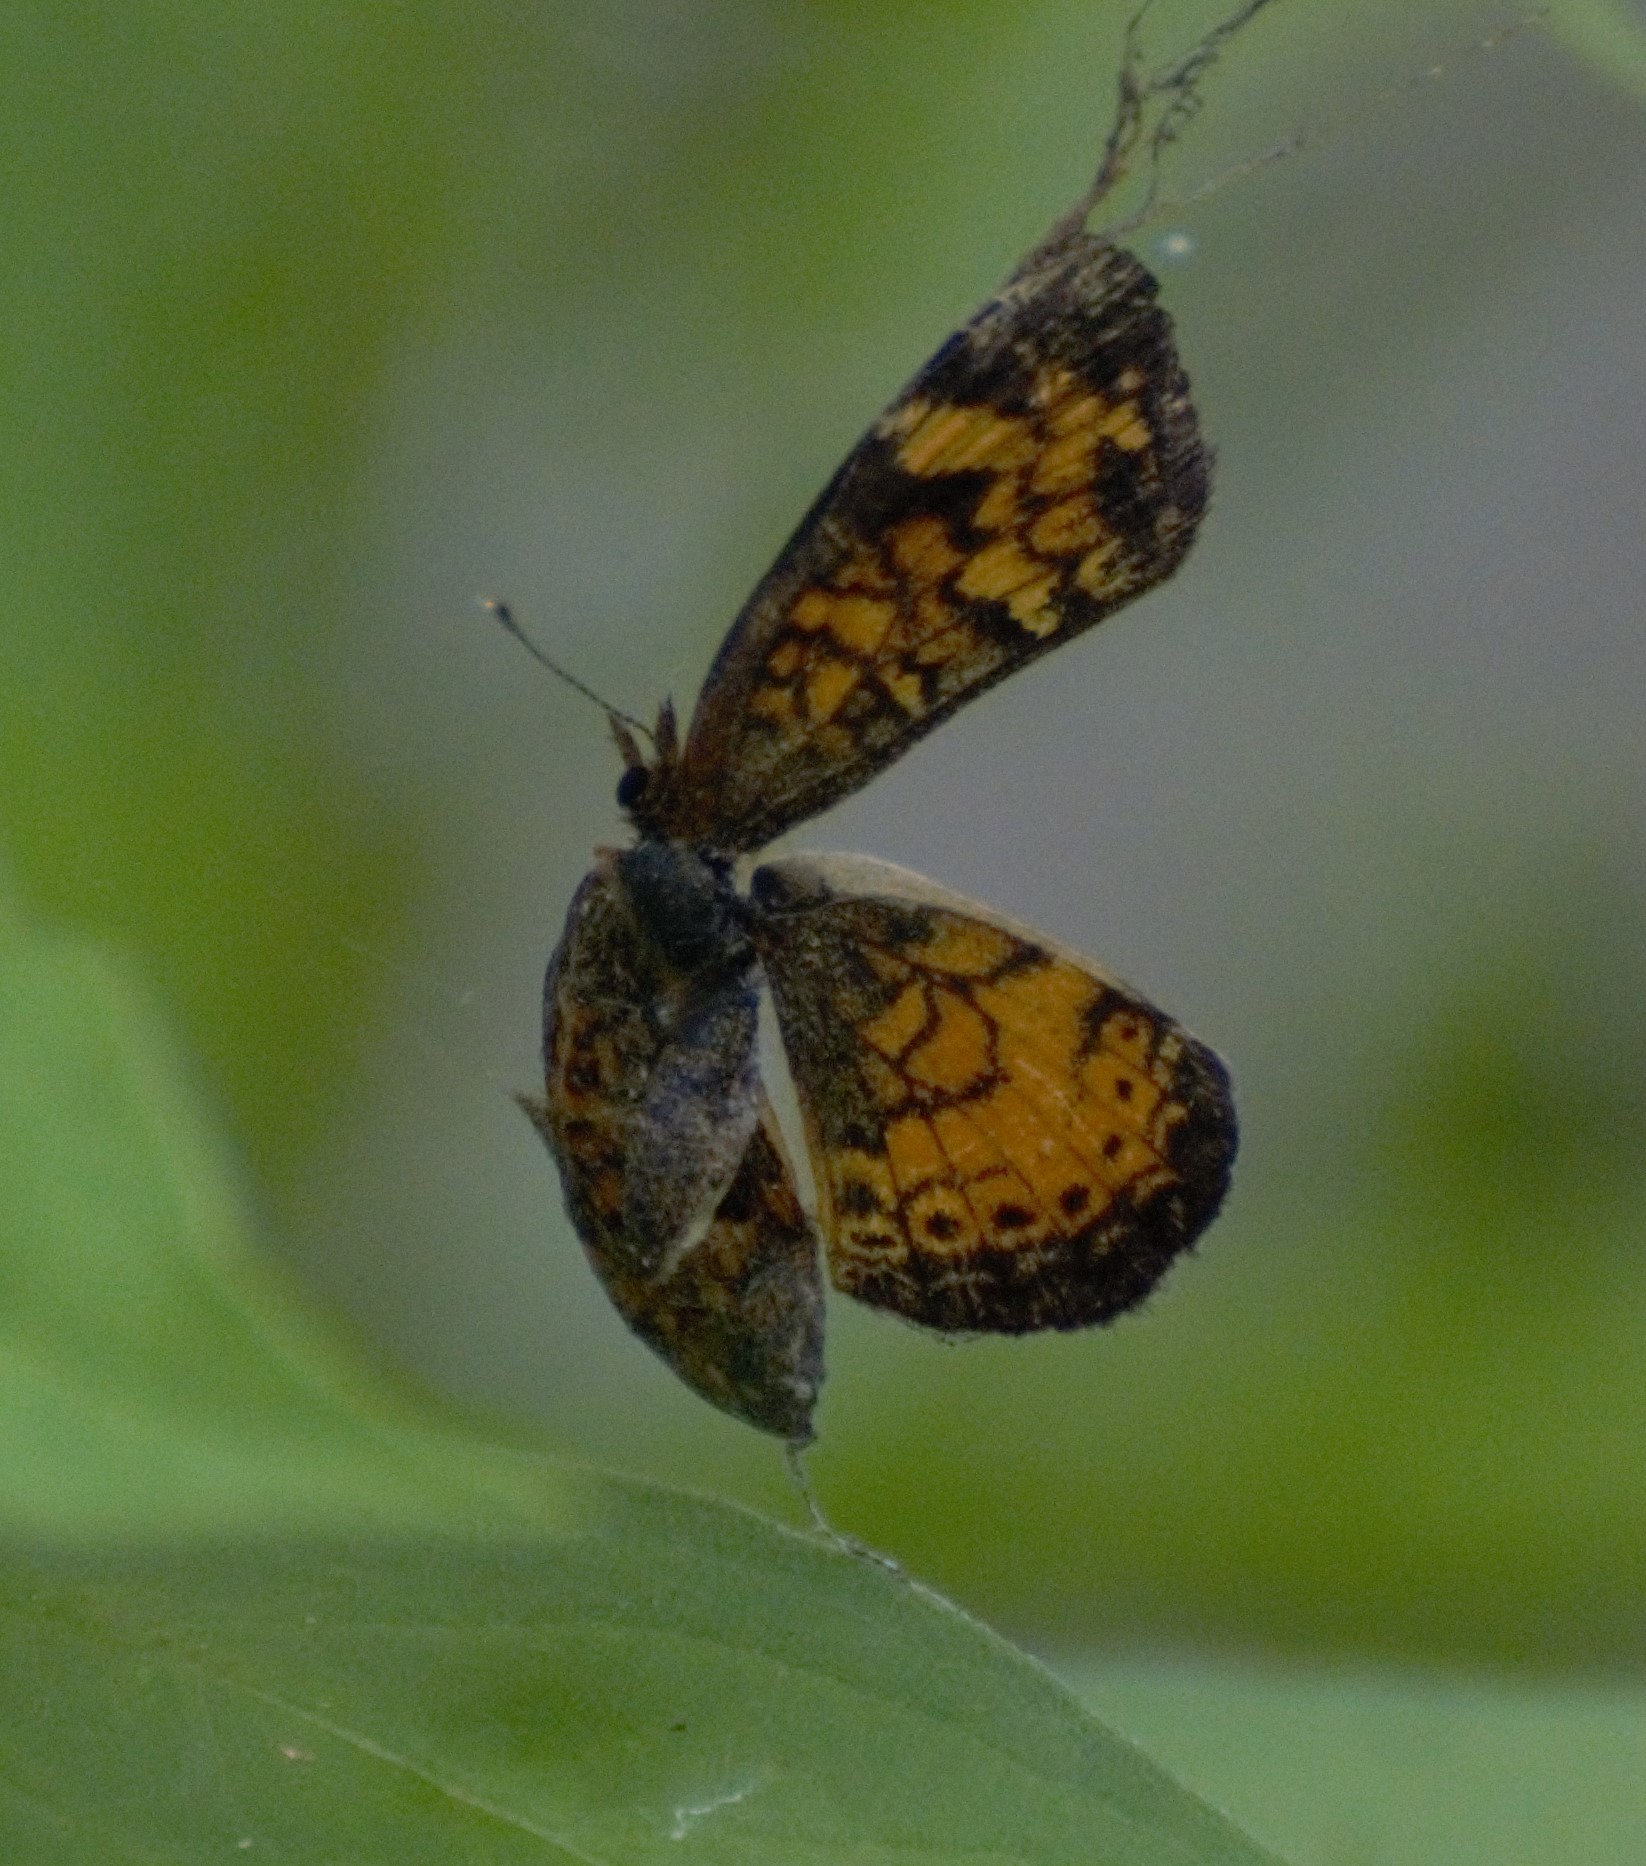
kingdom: Animalia
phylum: Arthropoda
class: Insecta
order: Lepidoptera
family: Nymphalidae
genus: Phyciodes
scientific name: Phyciodes tharos
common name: Pearl crescent
